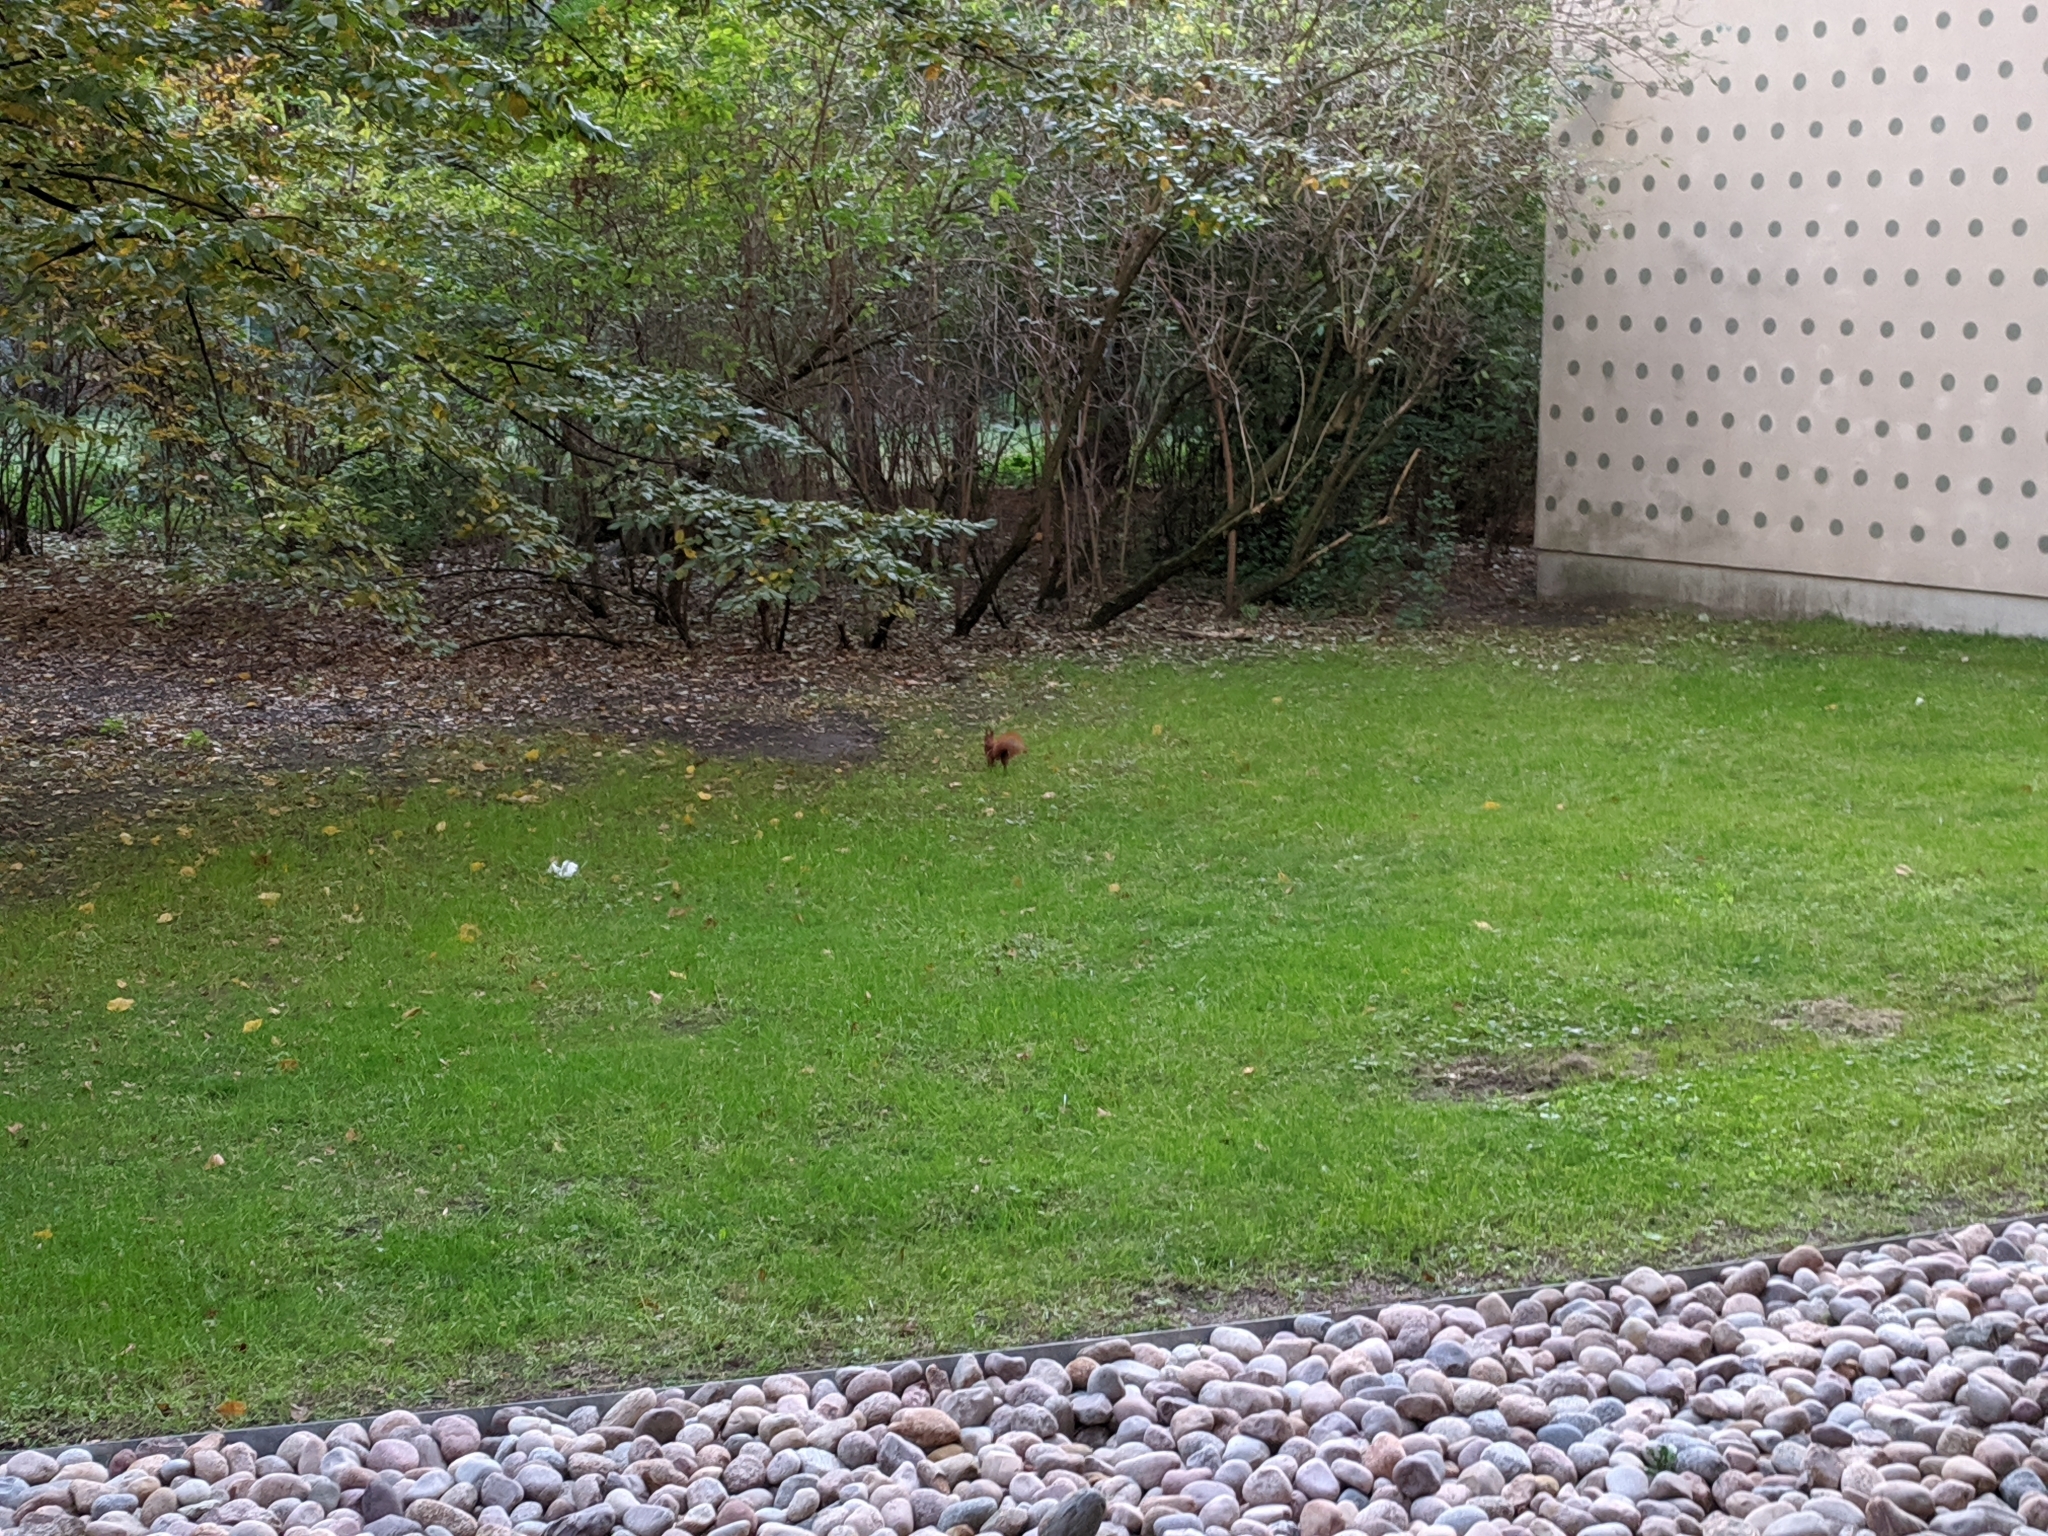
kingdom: Animalia
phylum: Chordata
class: Mammalia
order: Rodentia
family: Sciuridae
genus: Sciurus
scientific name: Sciurus vulgaris
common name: Eurasian red squirrel
